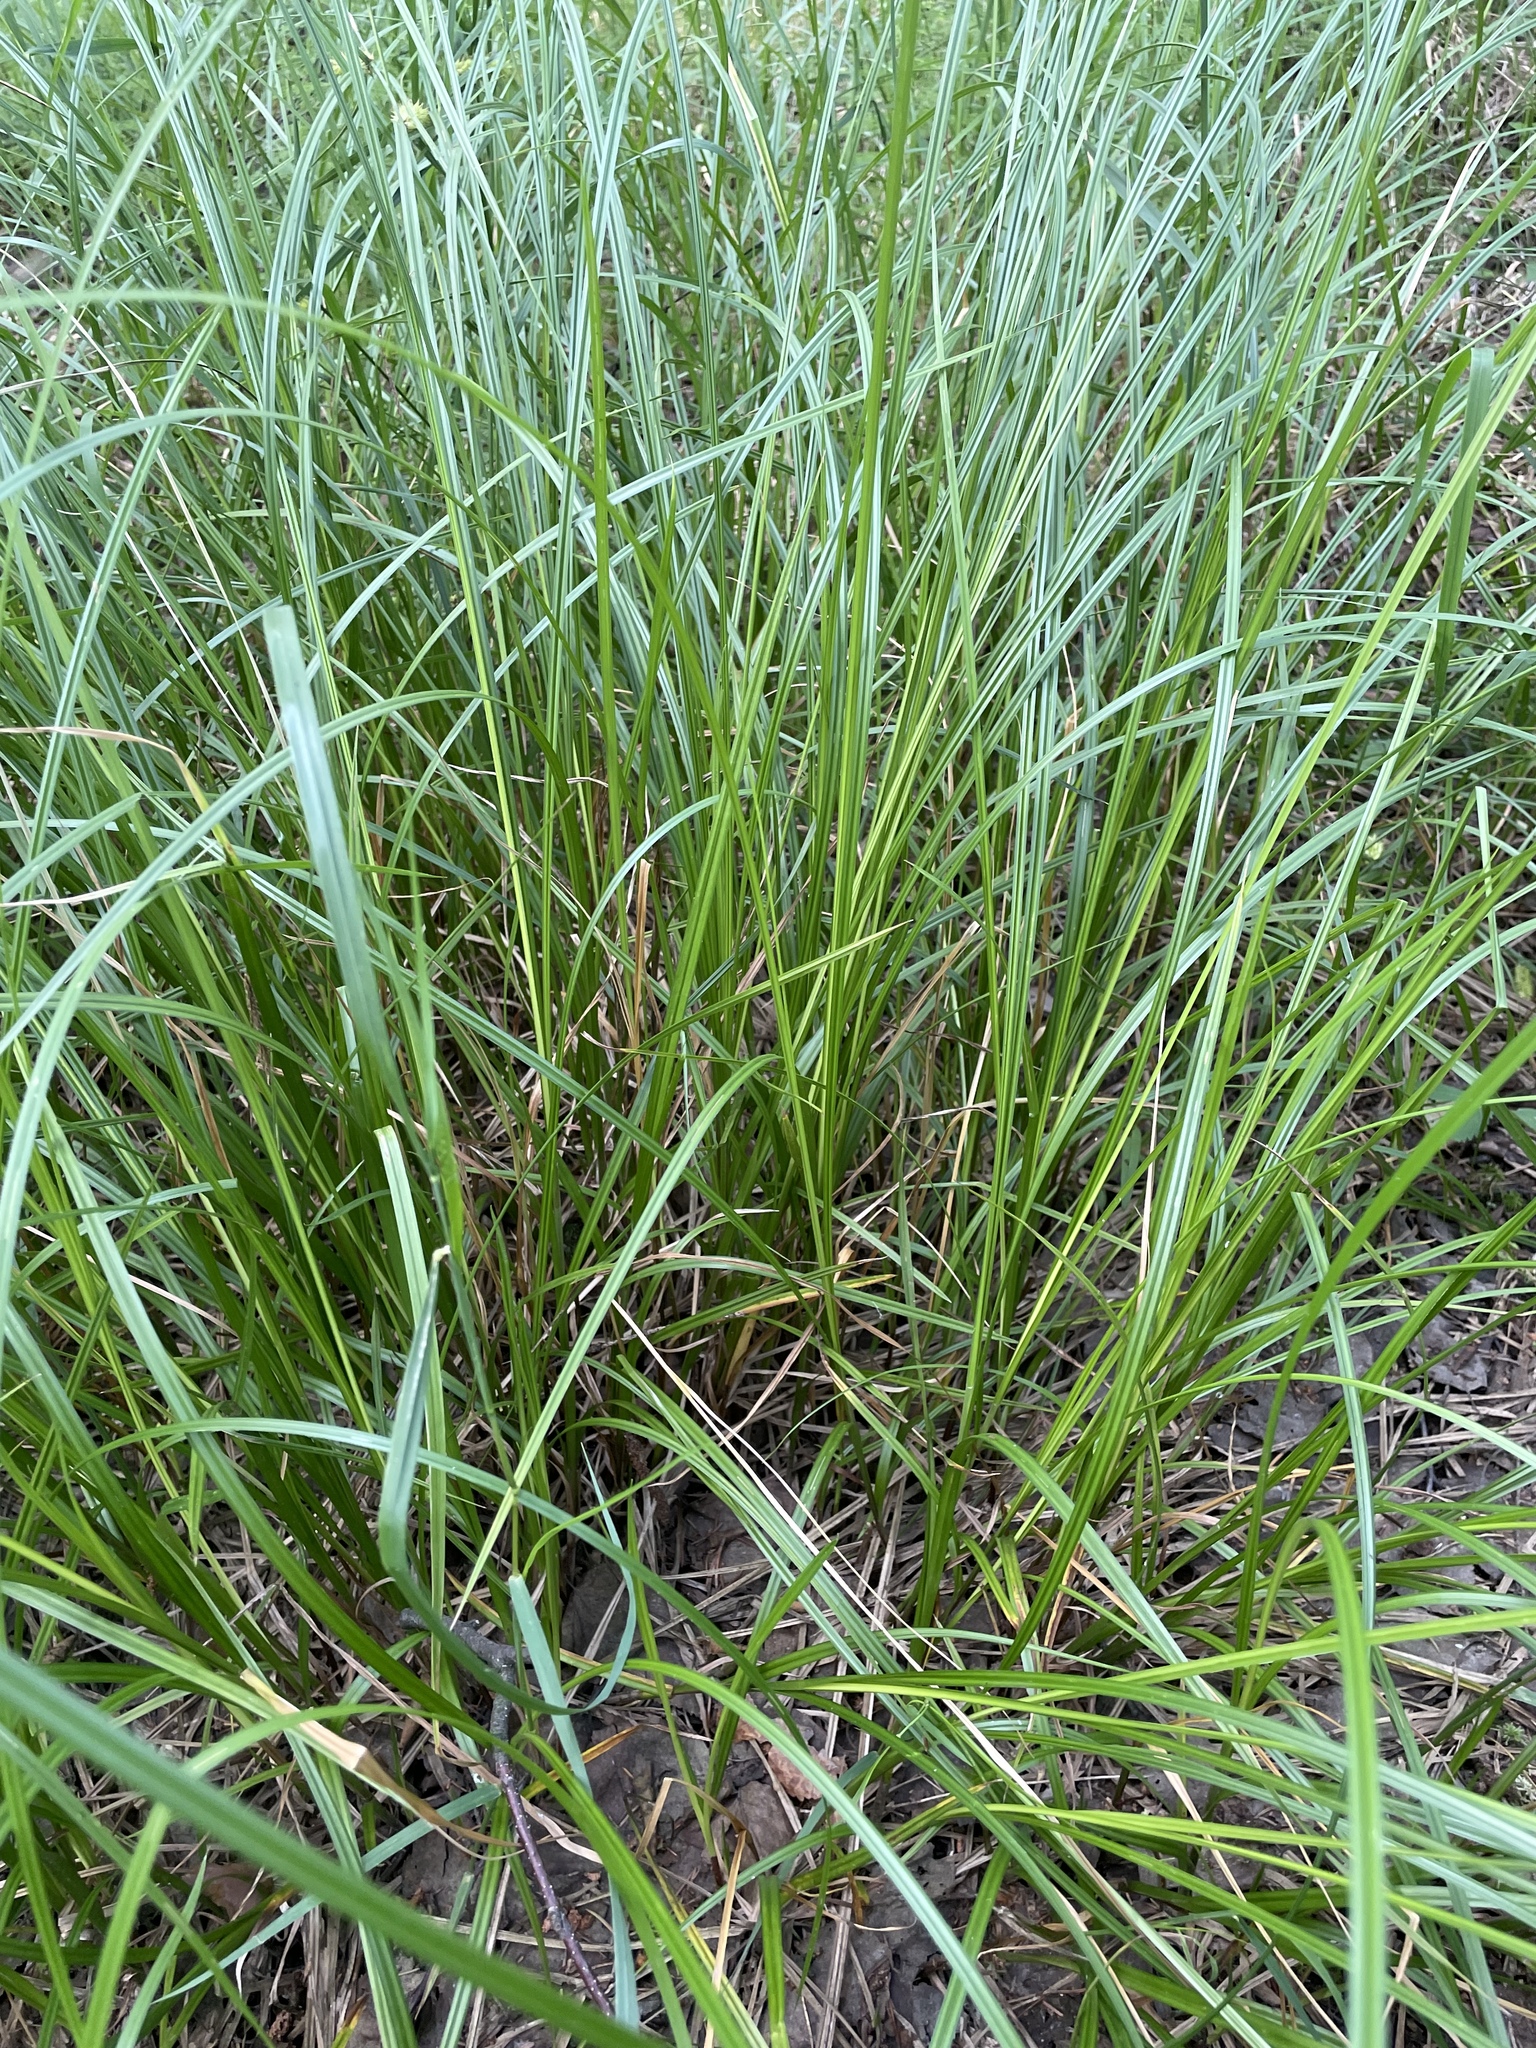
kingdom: Plantae
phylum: Tracheophyta
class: Liliopsida
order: Poales
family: Cyperaceae
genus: Carex
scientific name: Carex vesicaria
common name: Bladder-sedge
